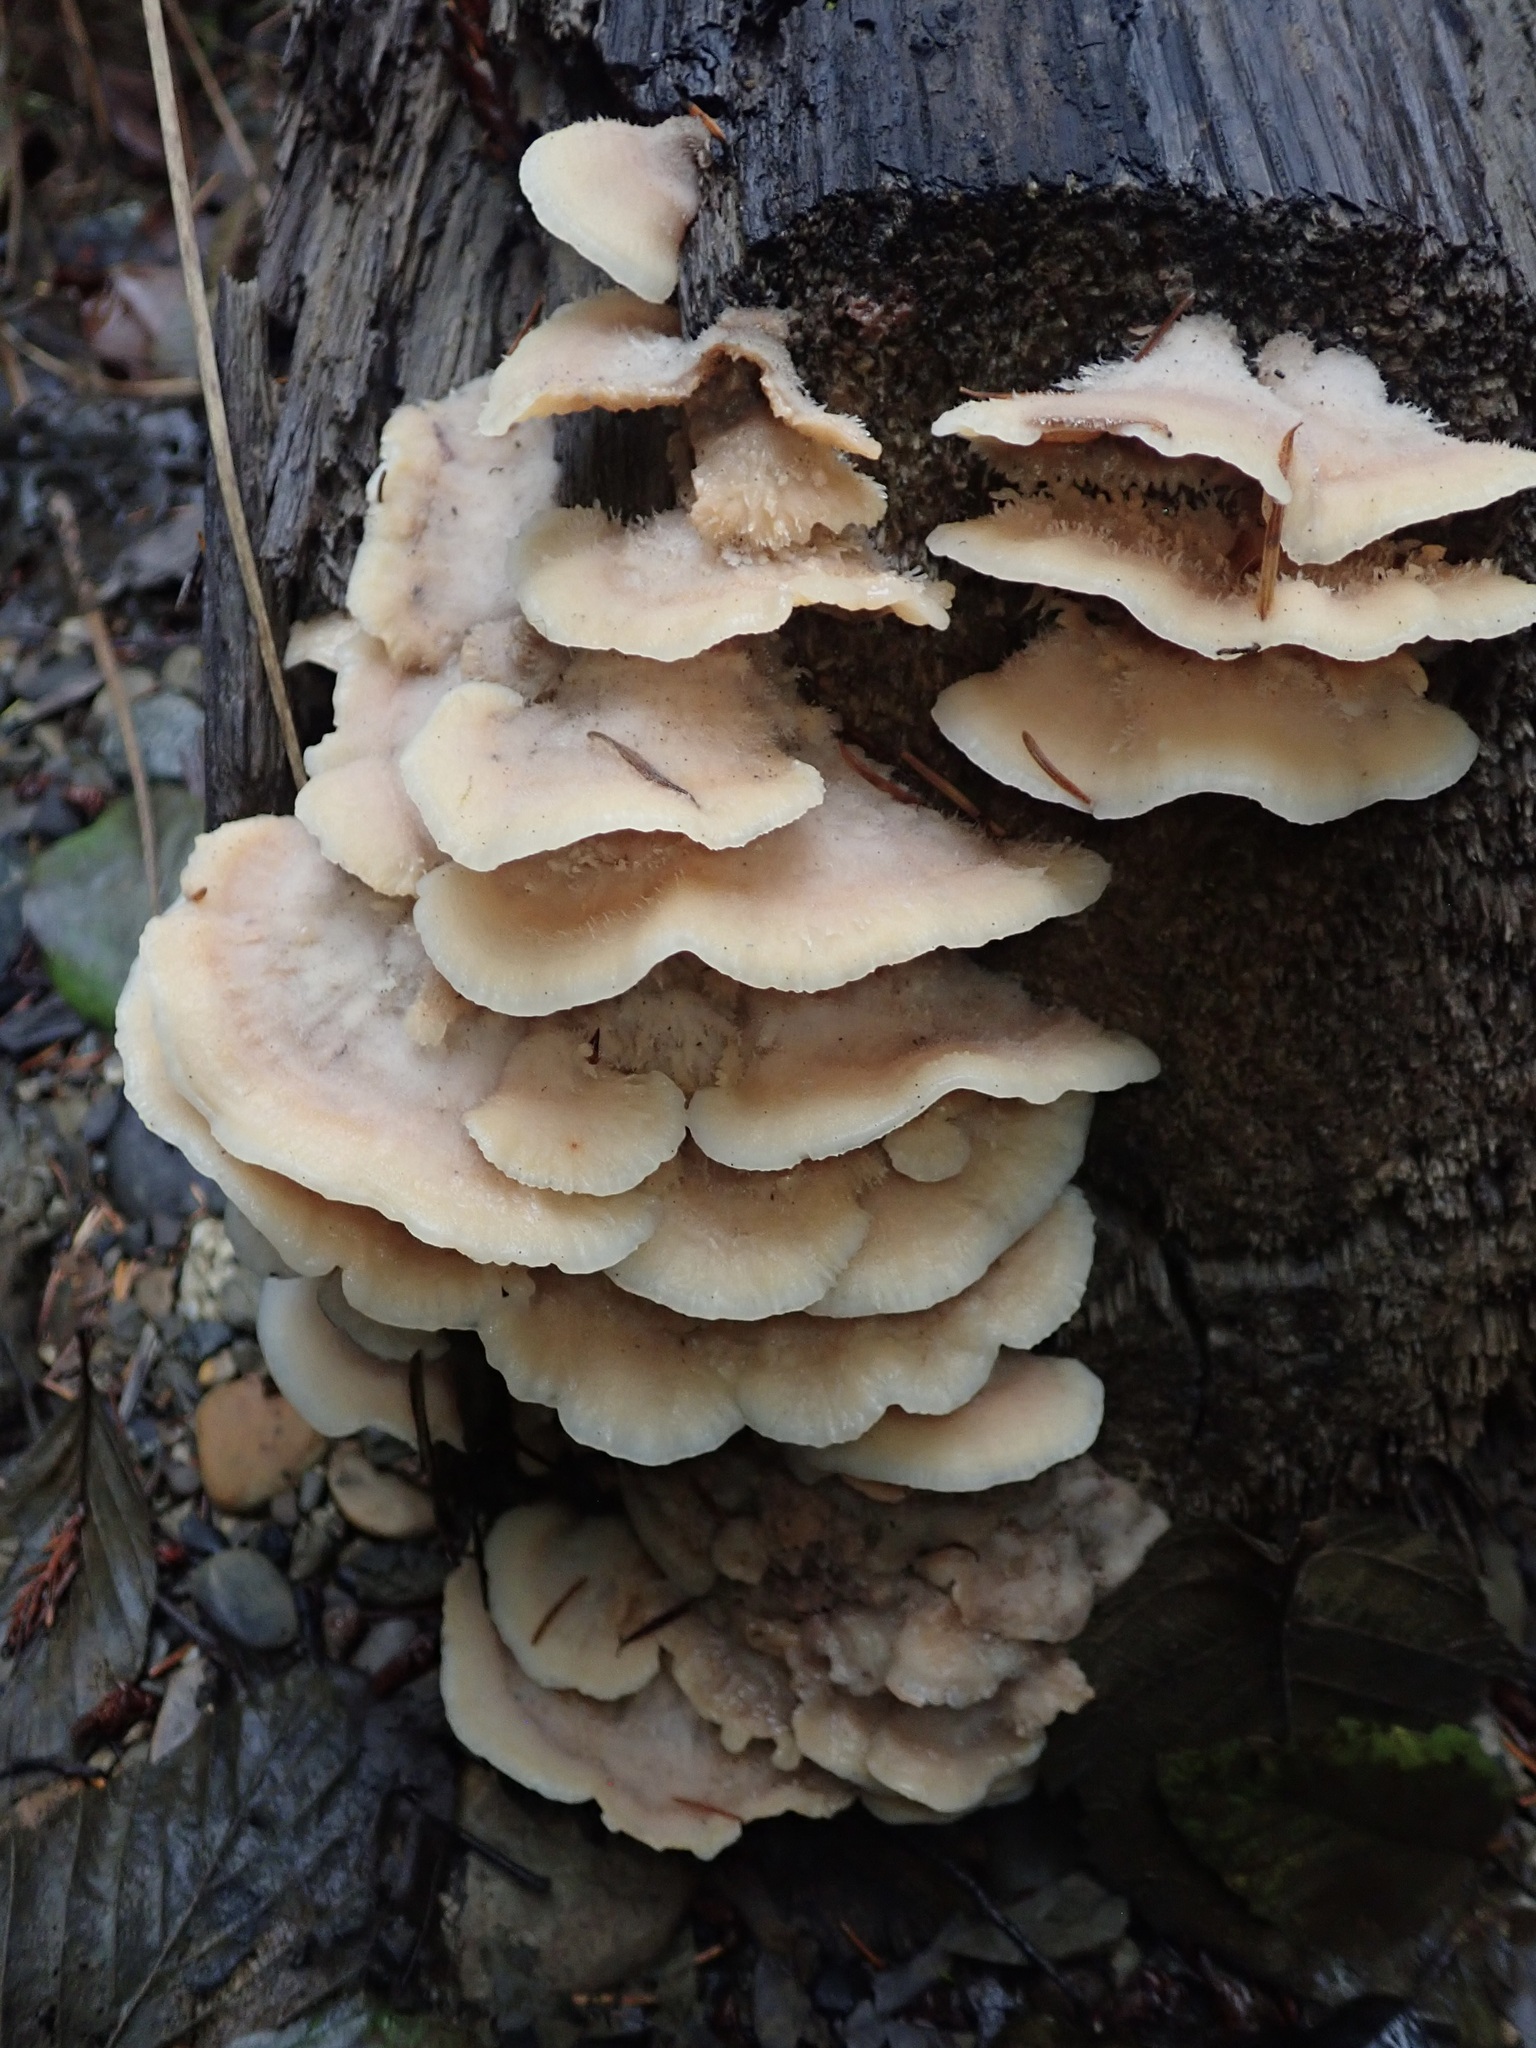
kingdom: Fungi
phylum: Basidiomycota
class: Agaricomycetes
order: Polyporales
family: Meruliaceae
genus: Phlebia
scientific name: Phlebia tremellosa
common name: Jelly rot
